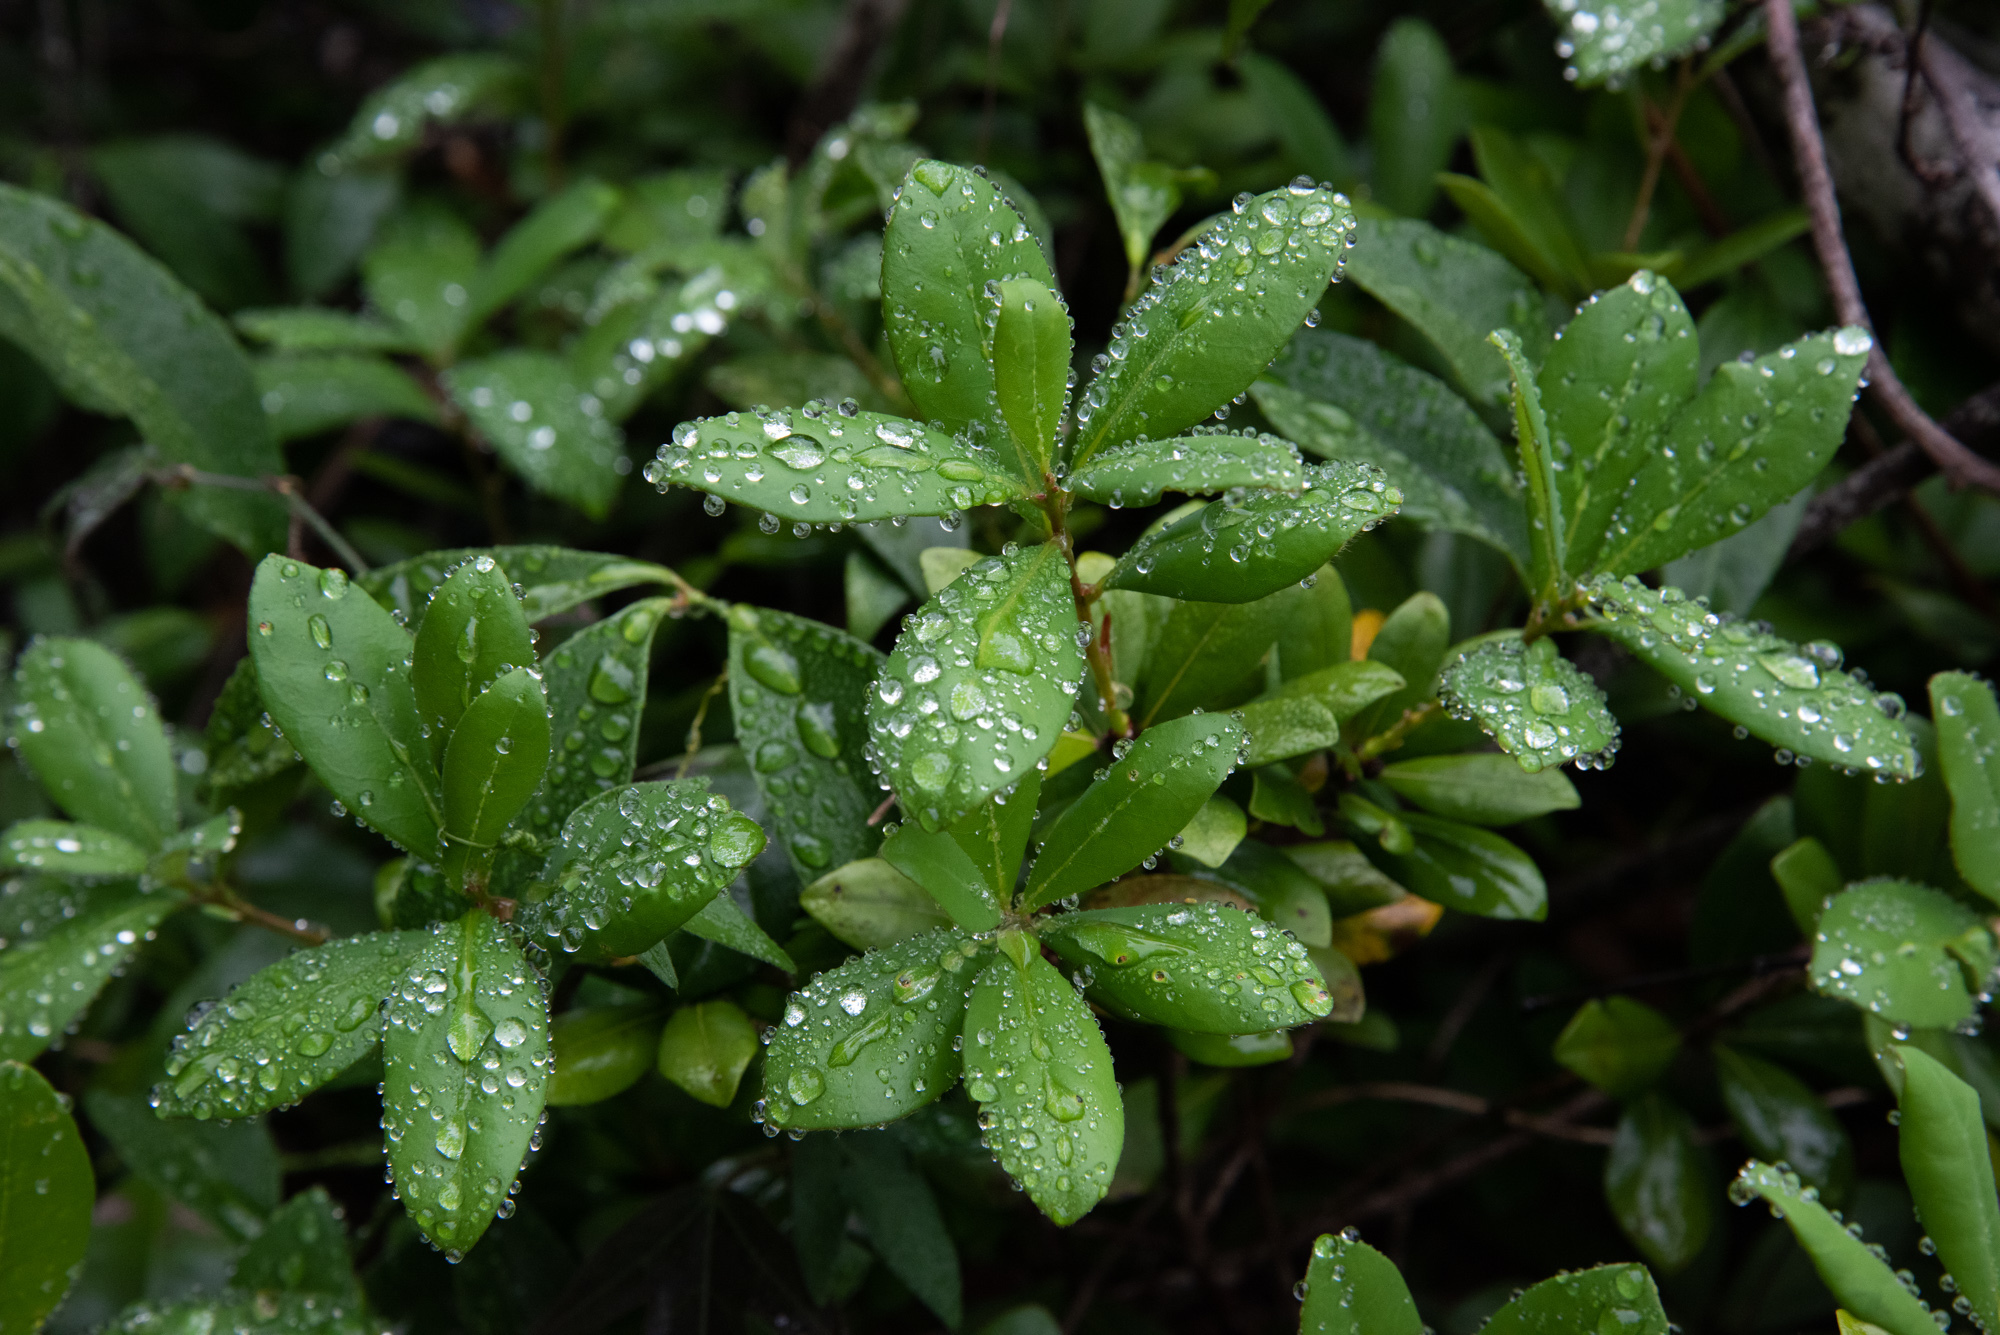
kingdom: Plantae
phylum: Tracheophyta
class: Magnoliopsida
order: Laurales
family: Lauraceae
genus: Litsea
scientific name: Litsea rotundifolia
